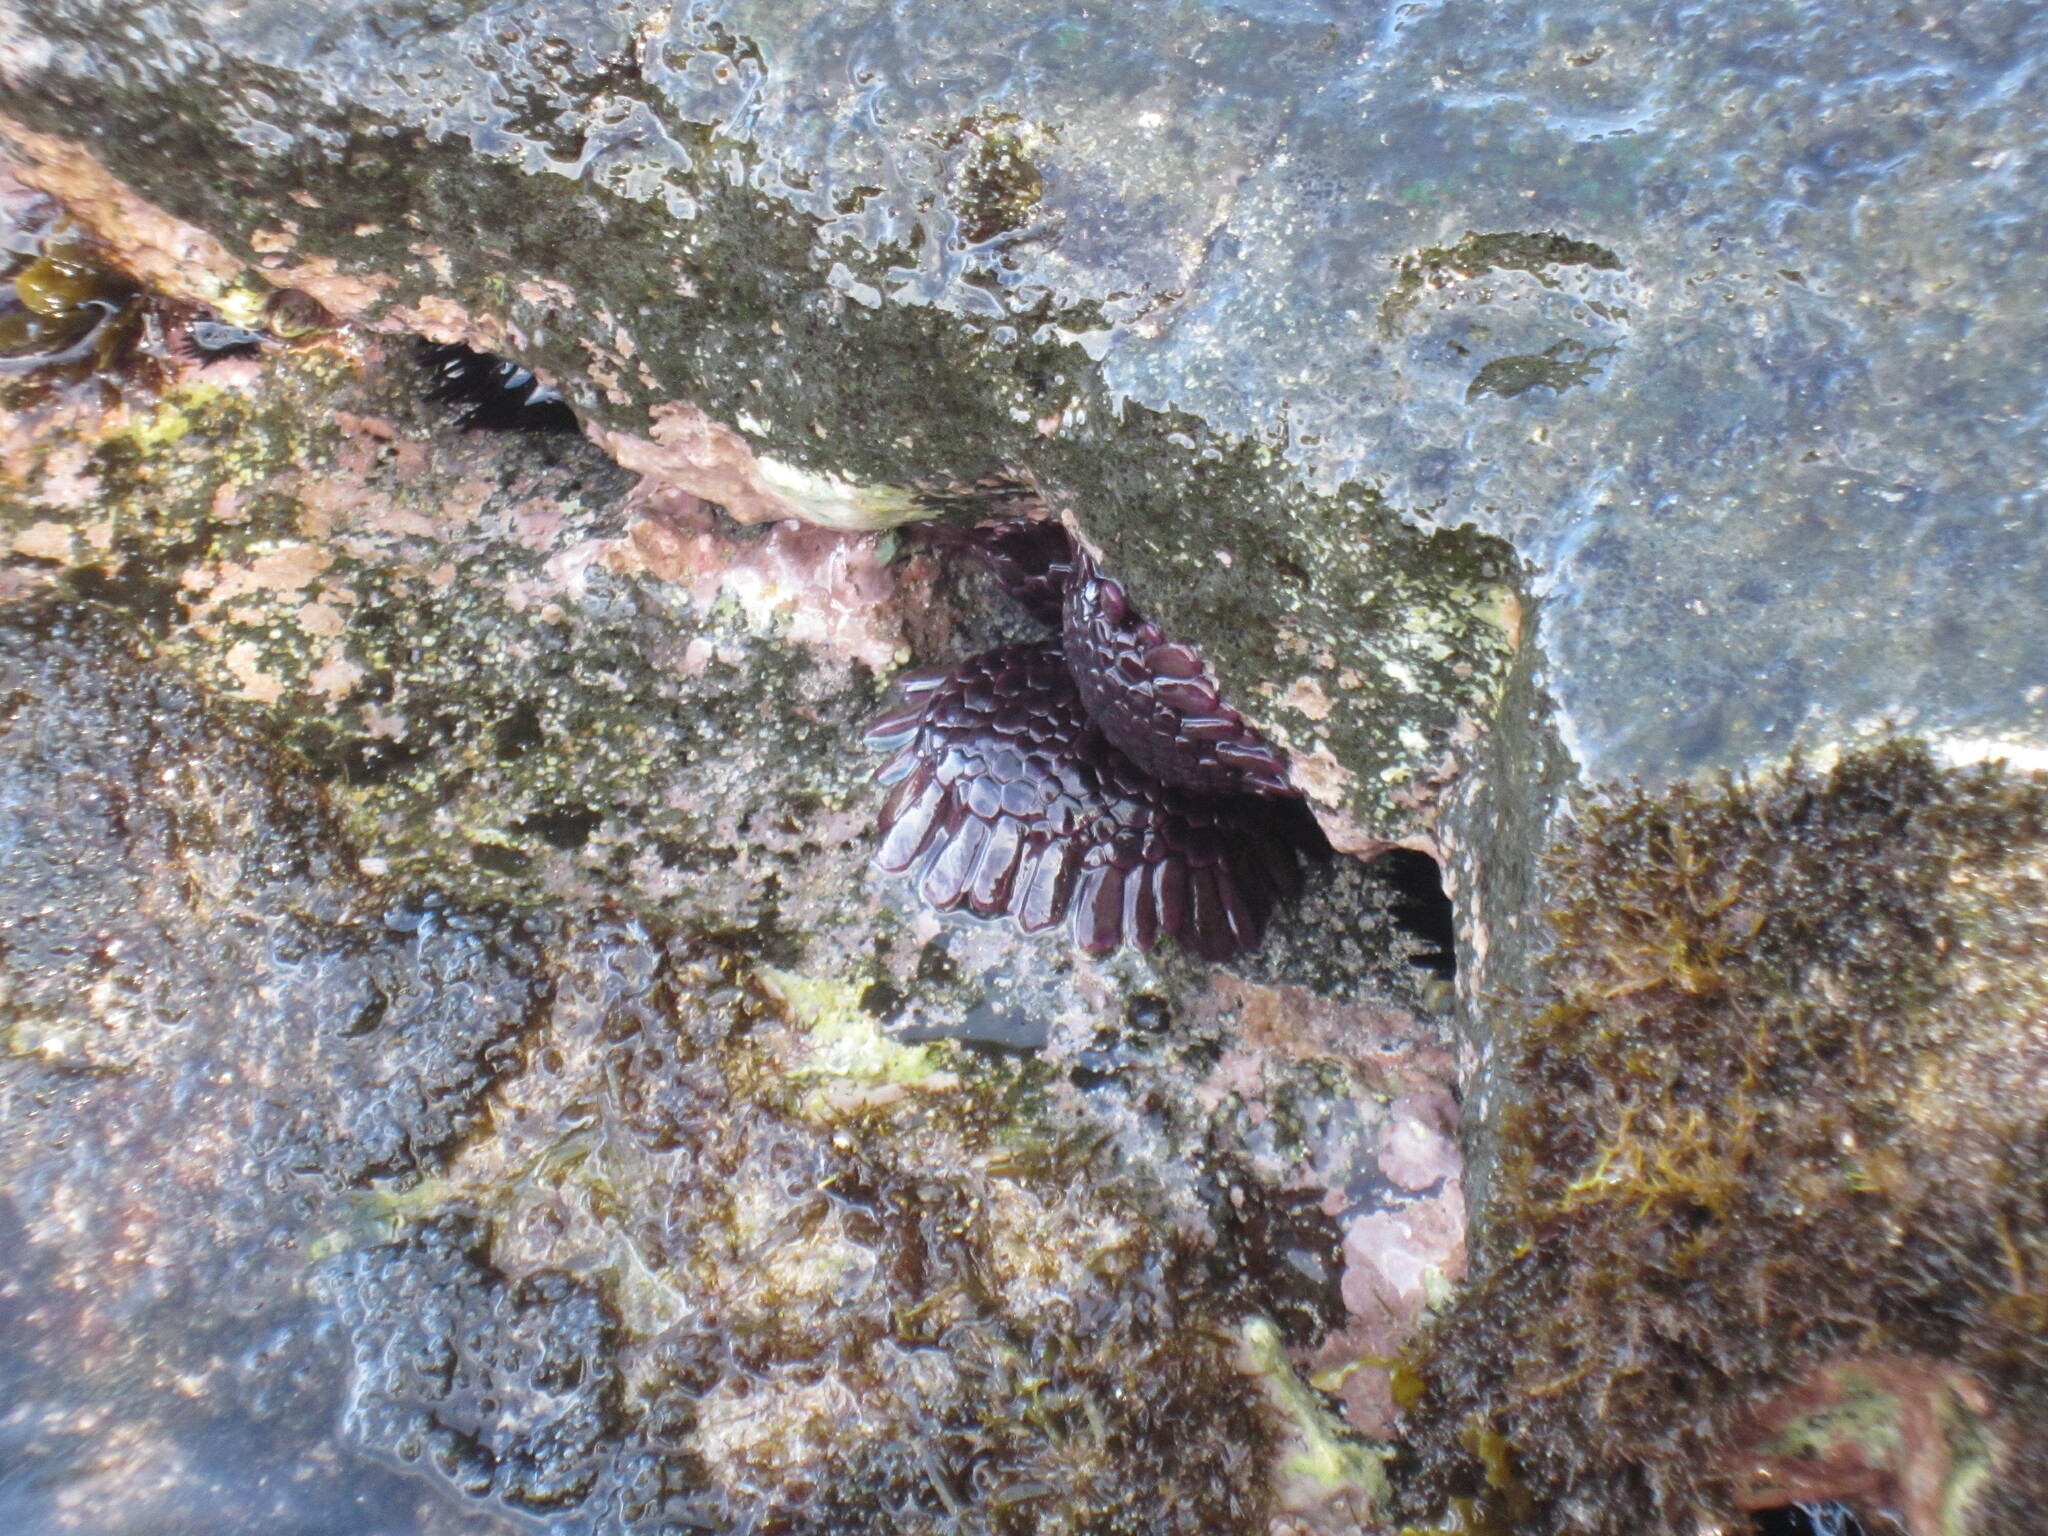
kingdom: Animalia
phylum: Echinodermata
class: Echinoidea
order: Camarodonta
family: Echinometridae
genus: Colobocentrotus
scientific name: Colobocentrotus atratus
